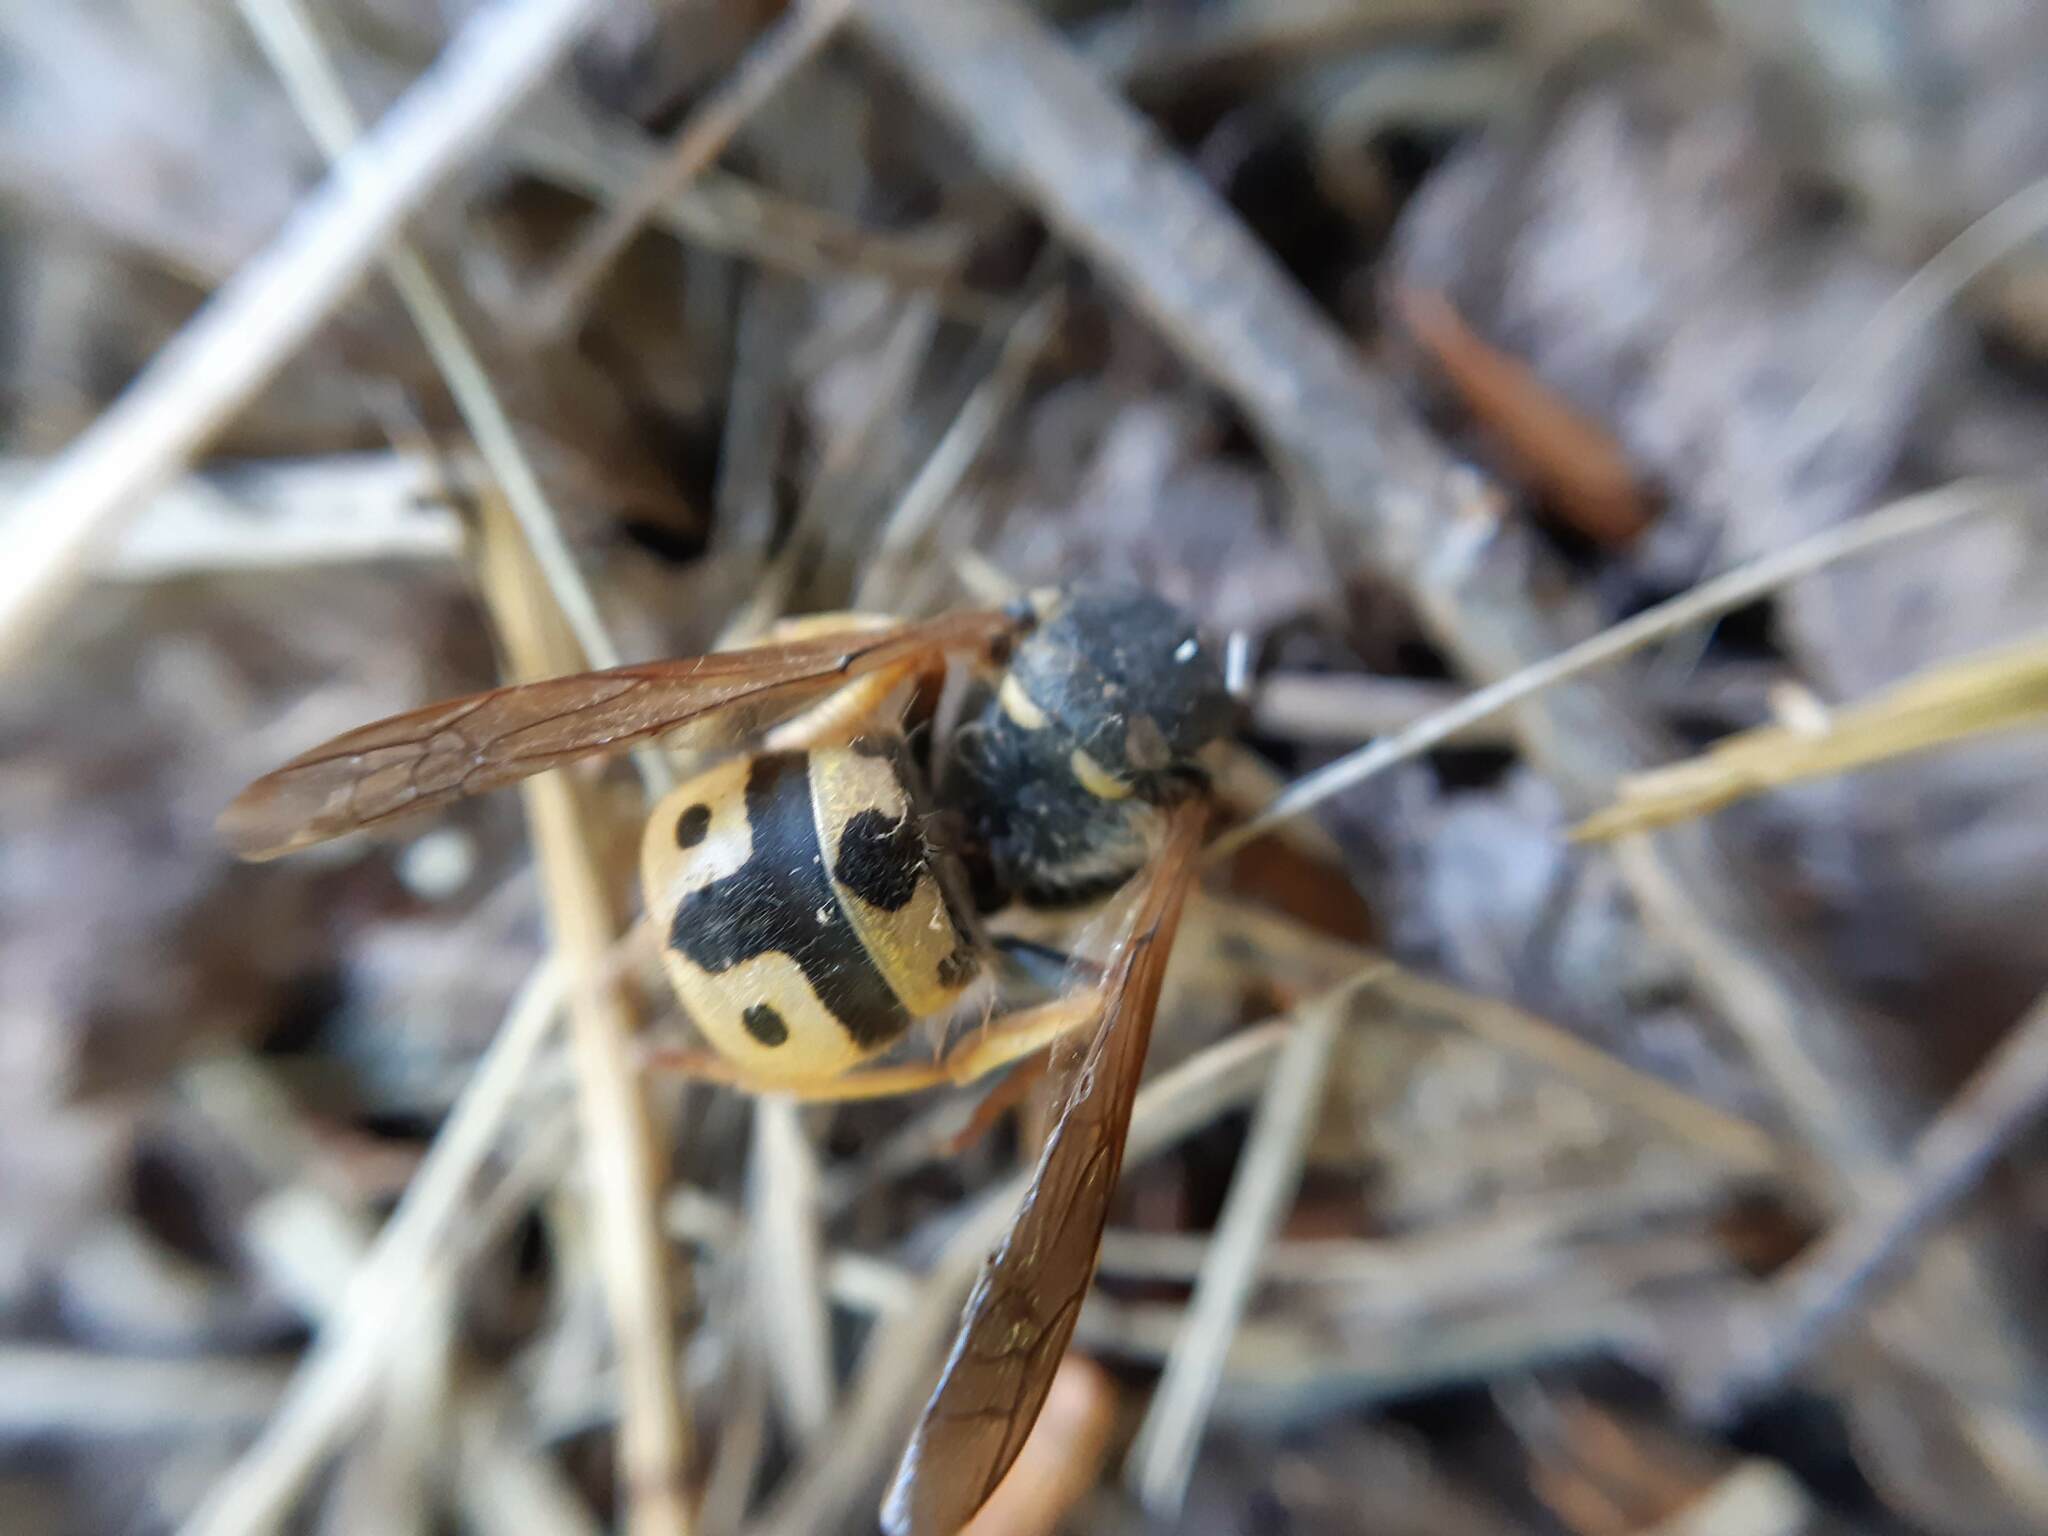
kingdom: Animalia
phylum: Arthropoda
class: Insecta
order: Hymenoptera
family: Vespidae
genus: Vespula
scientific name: Vespula germanica
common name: German wasp
